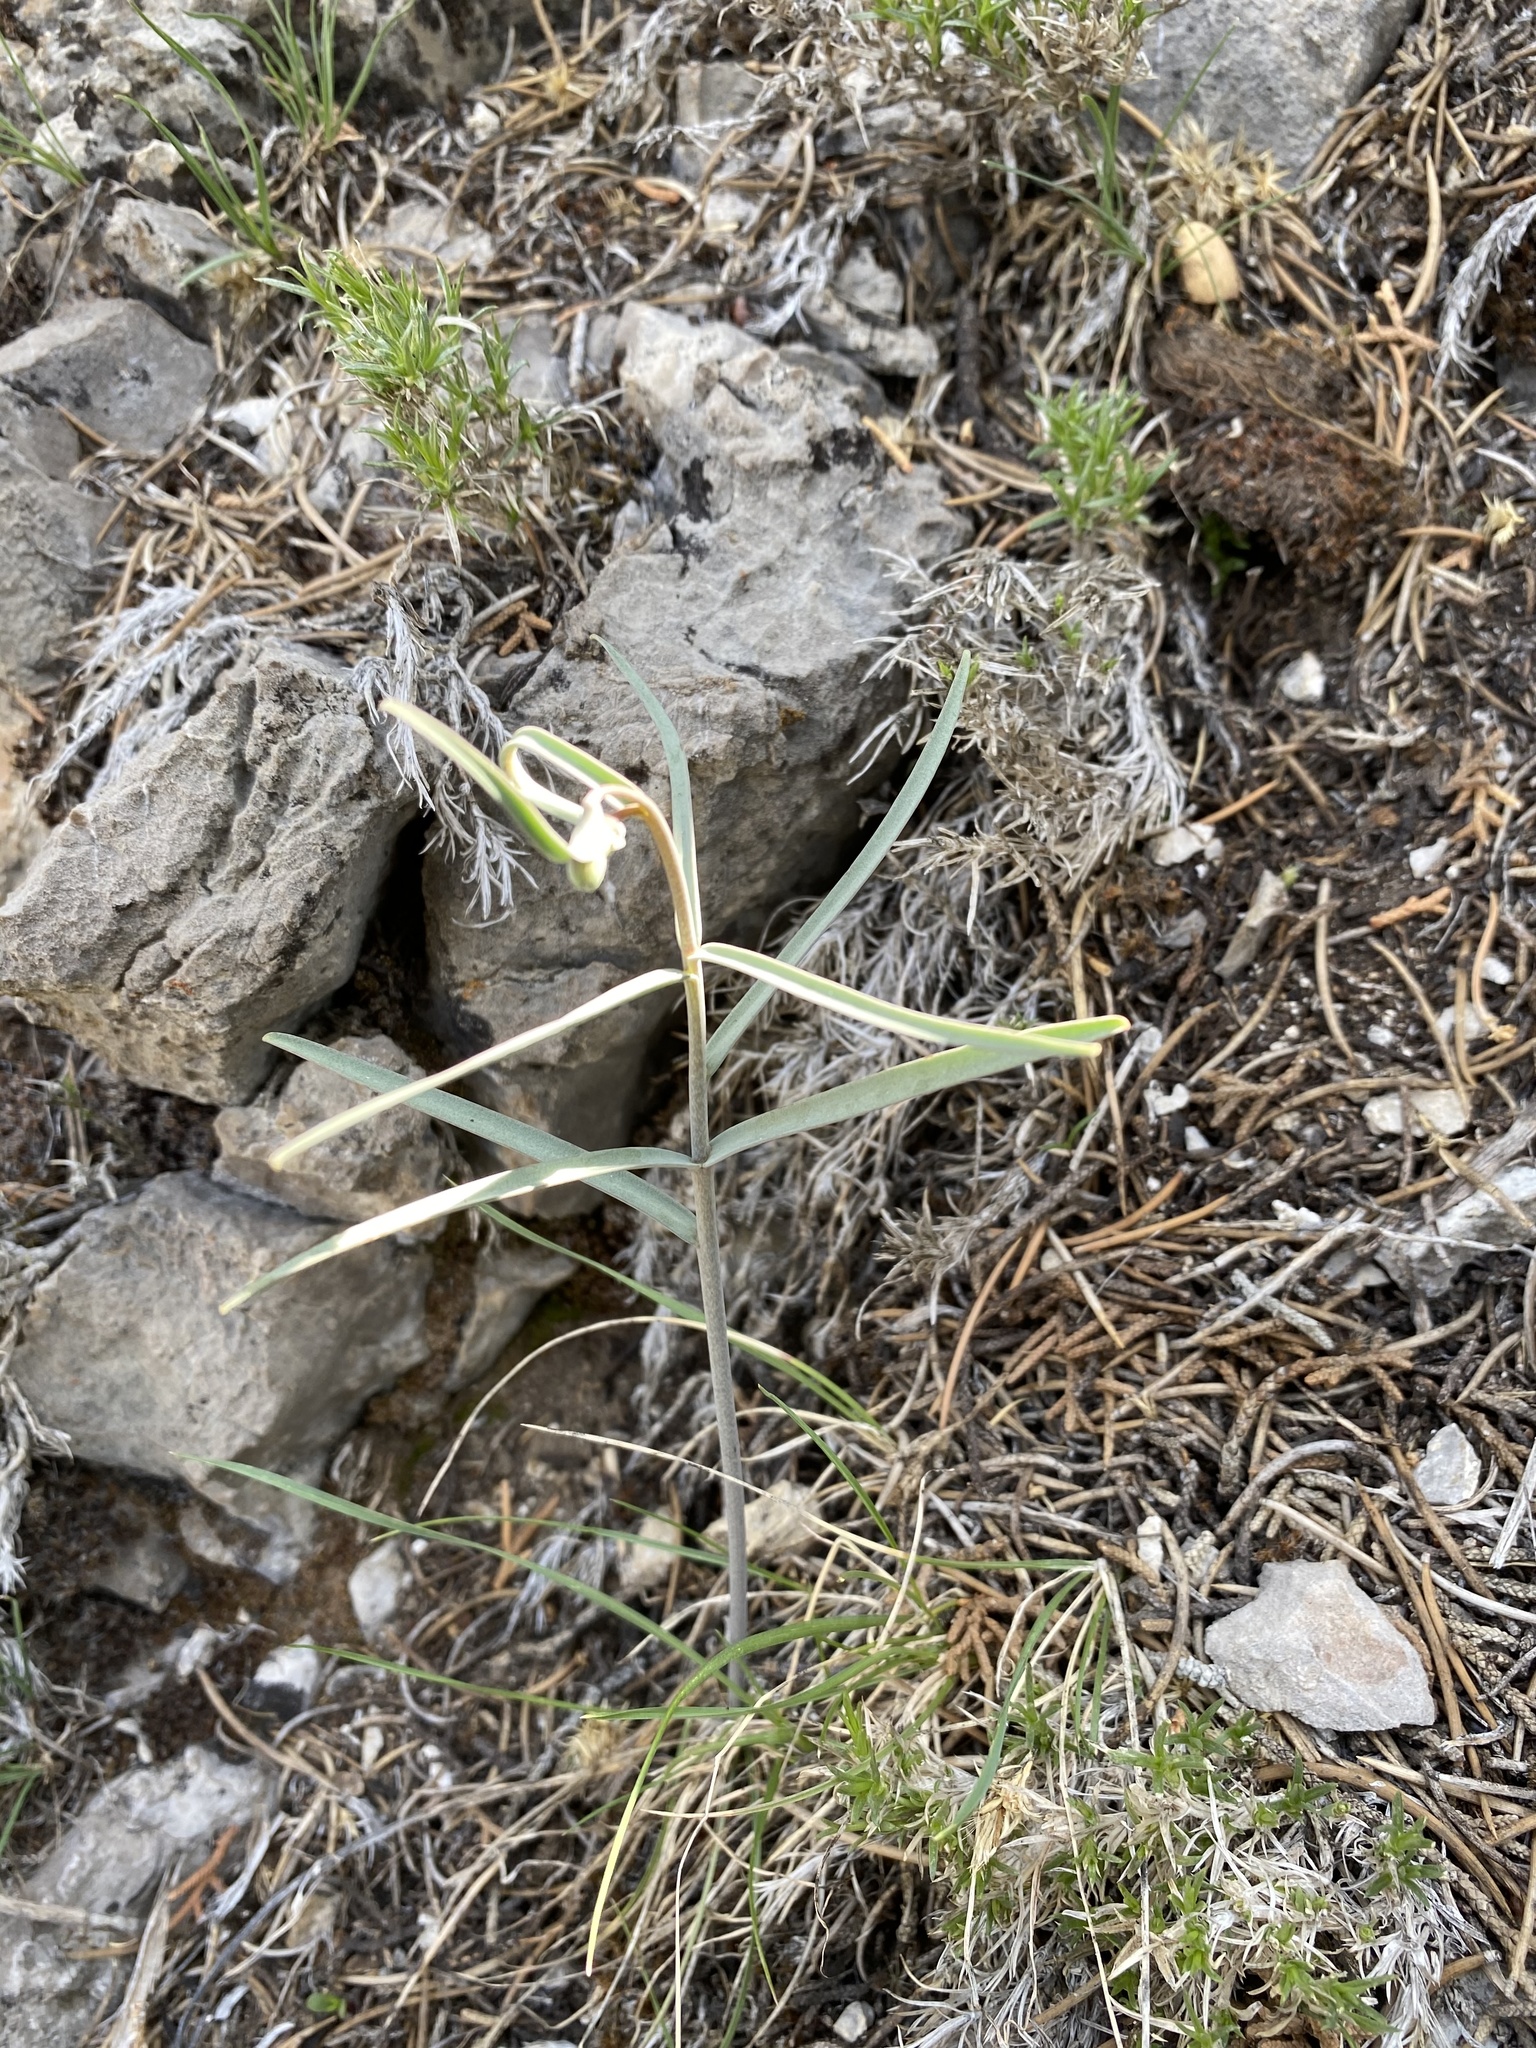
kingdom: Plantae
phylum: Tracheophyta
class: Liliopsida
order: Liliales
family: Liliaceae
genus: Fritillaria
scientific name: Fritillaria atropurpurea
